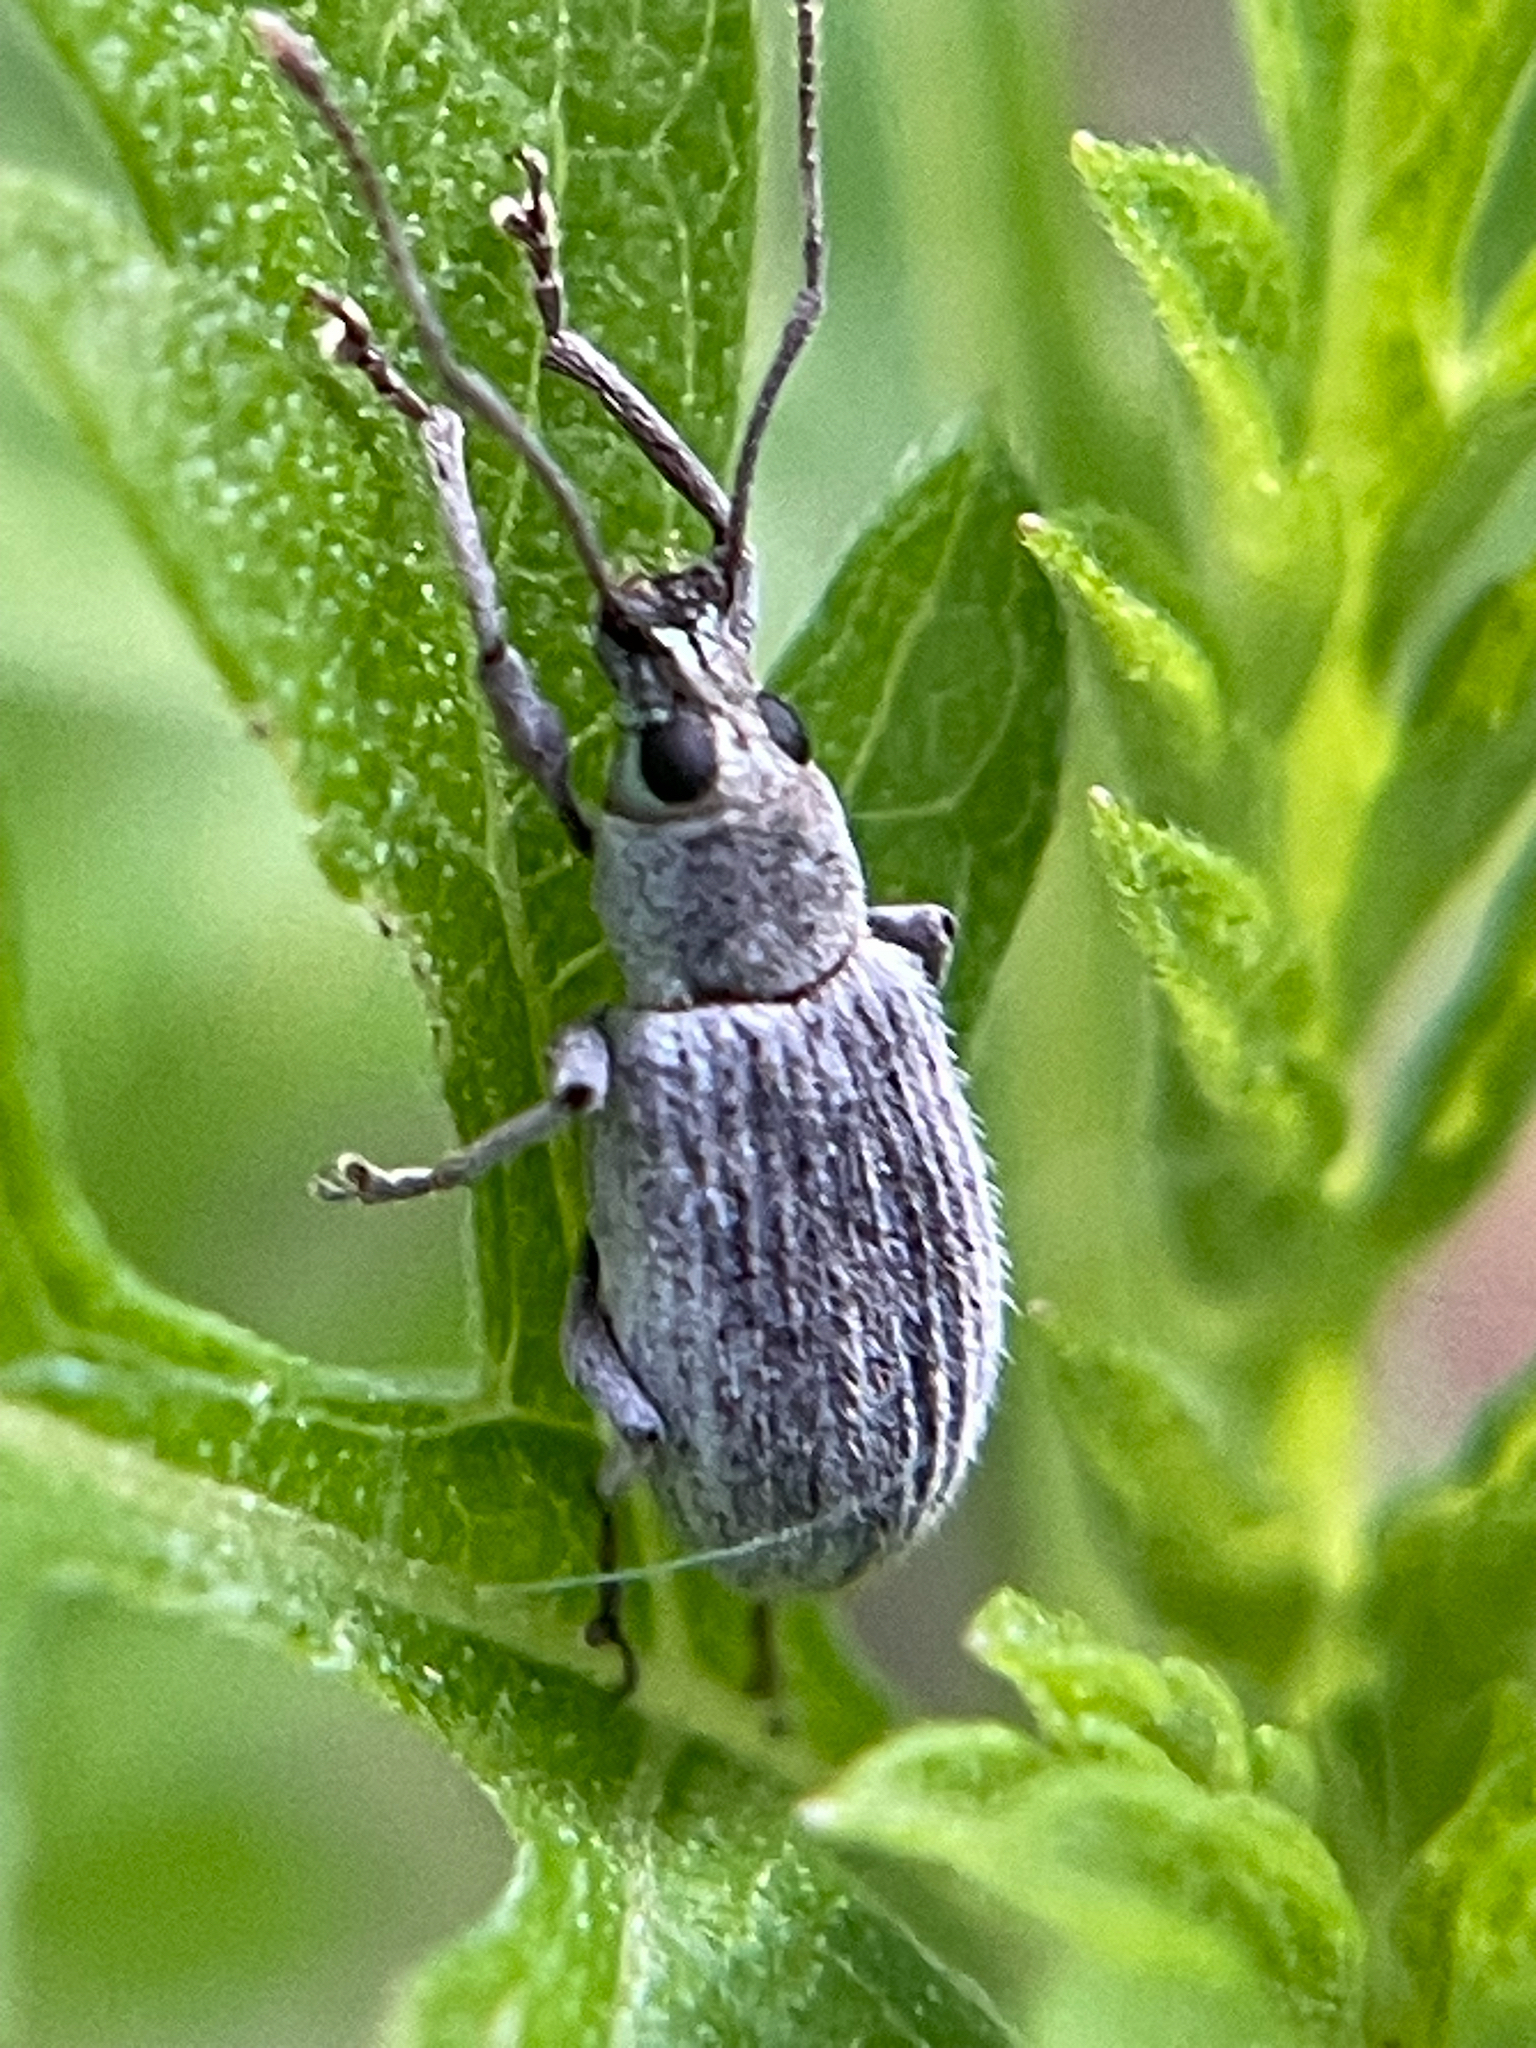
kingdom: Animalia
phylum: Arthropoda
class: Insecta
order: Coleoptera
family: Curculionidae
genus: Cyrtepistomus
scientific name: Cyrtepistomus castaneus
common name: Weevil
